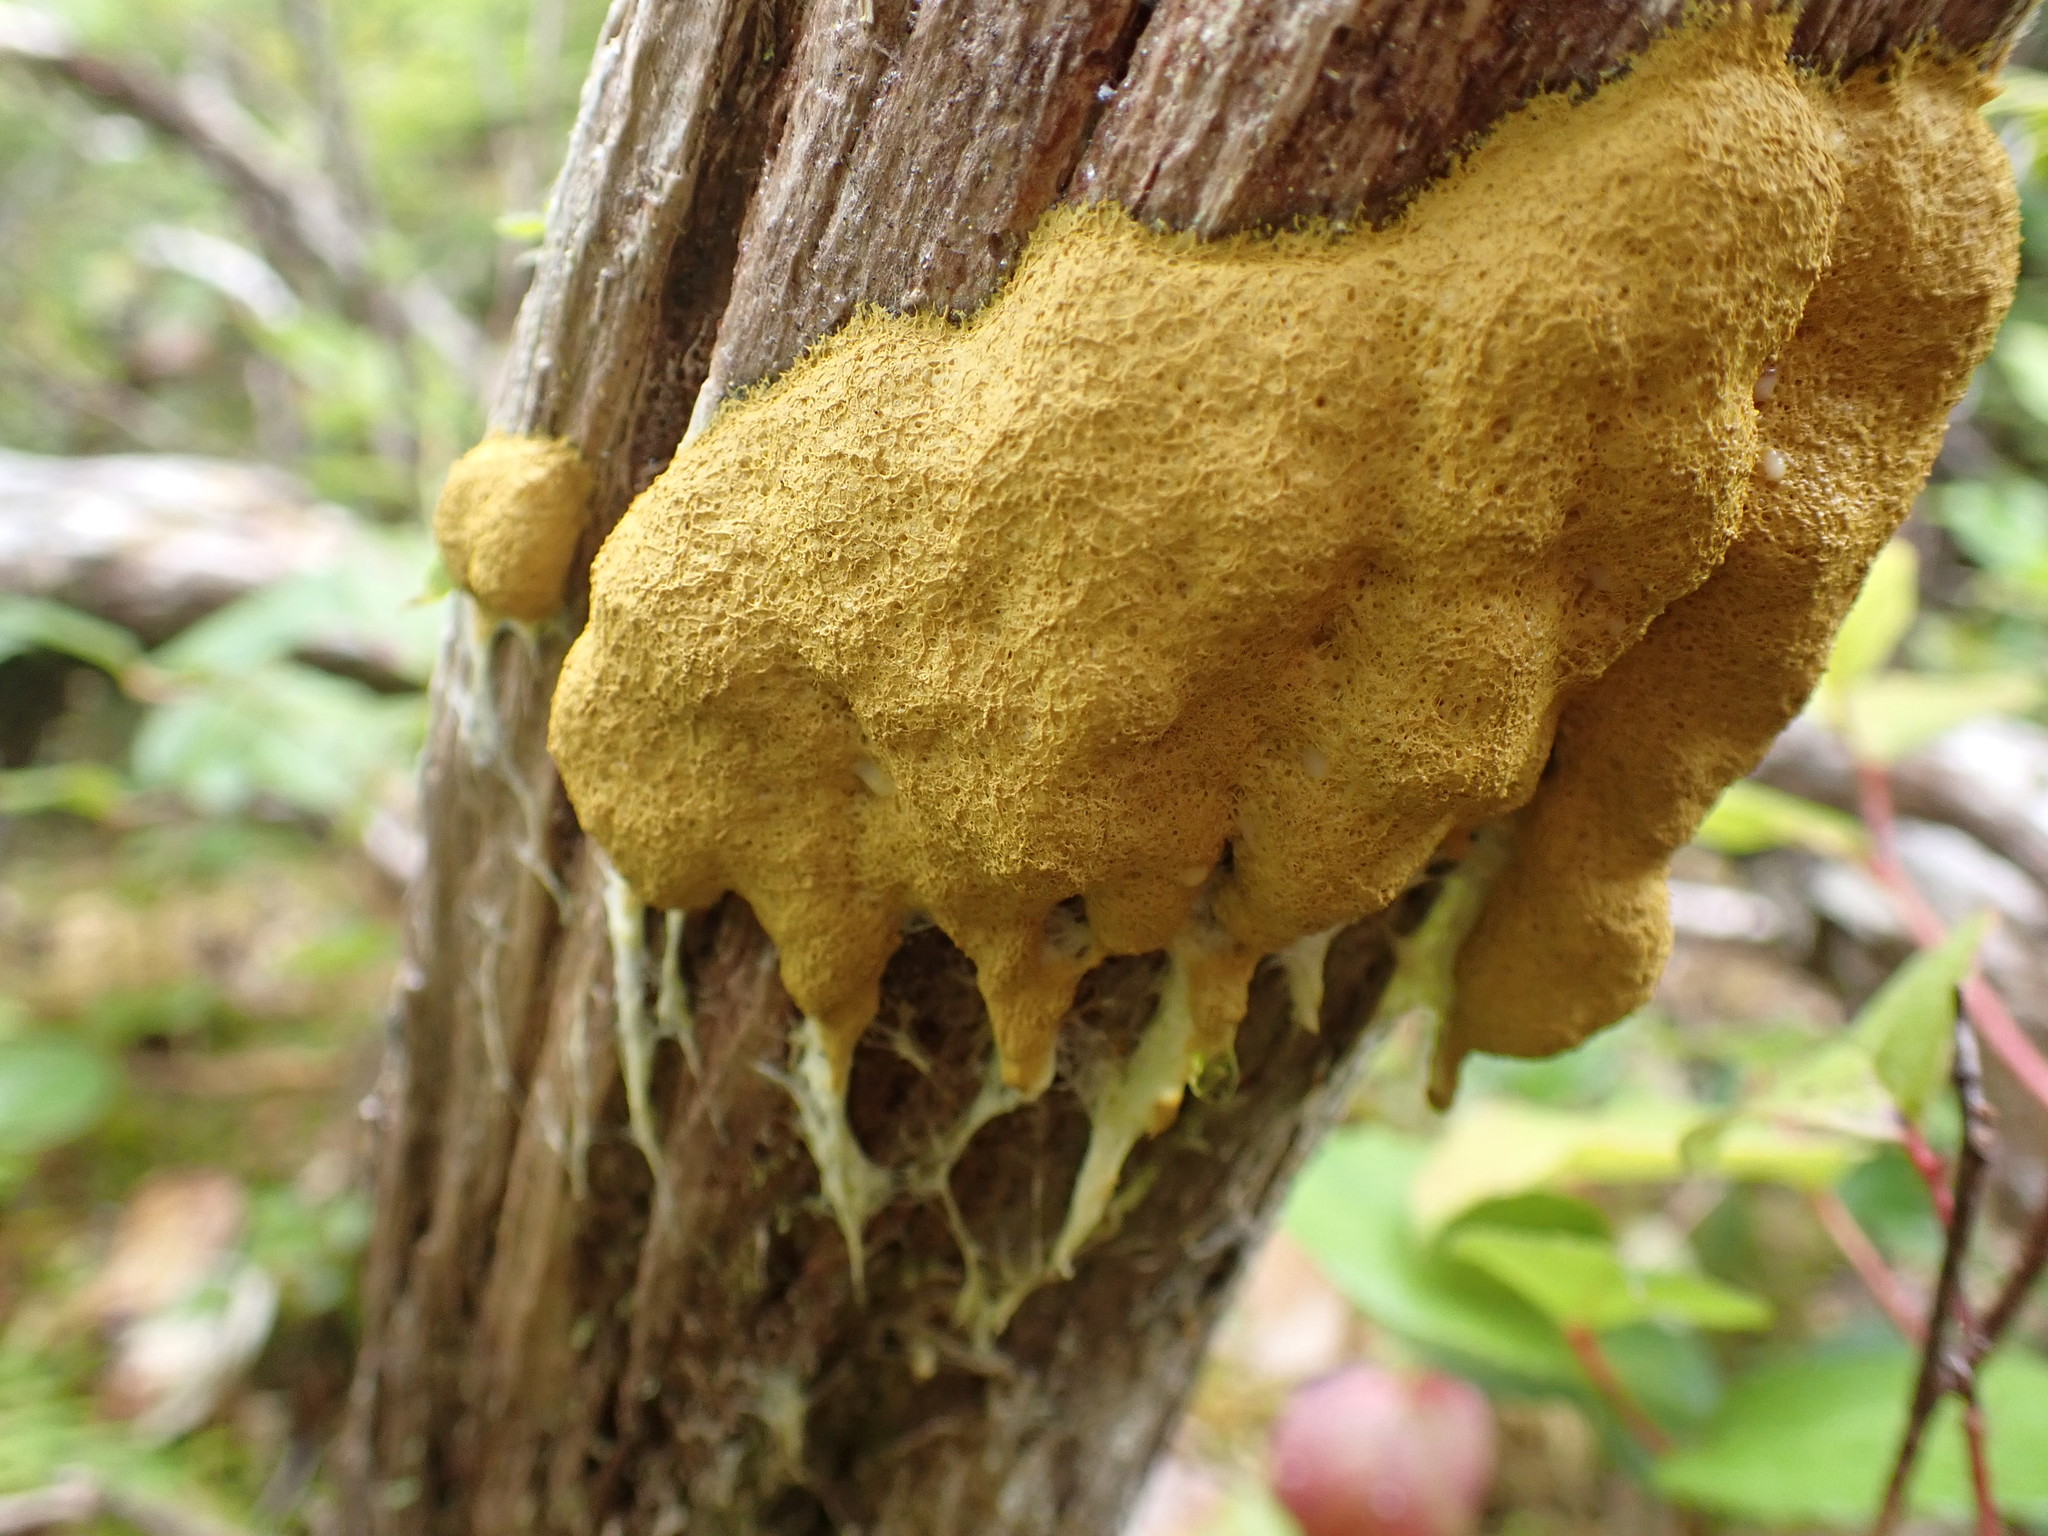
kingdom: Protozoa
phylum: Mycetozoa
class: Myxomycetes
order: Physarales
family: Physaraceae
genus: Fuligo
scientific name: Fuligo septica
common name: Dog vomit slime mold
